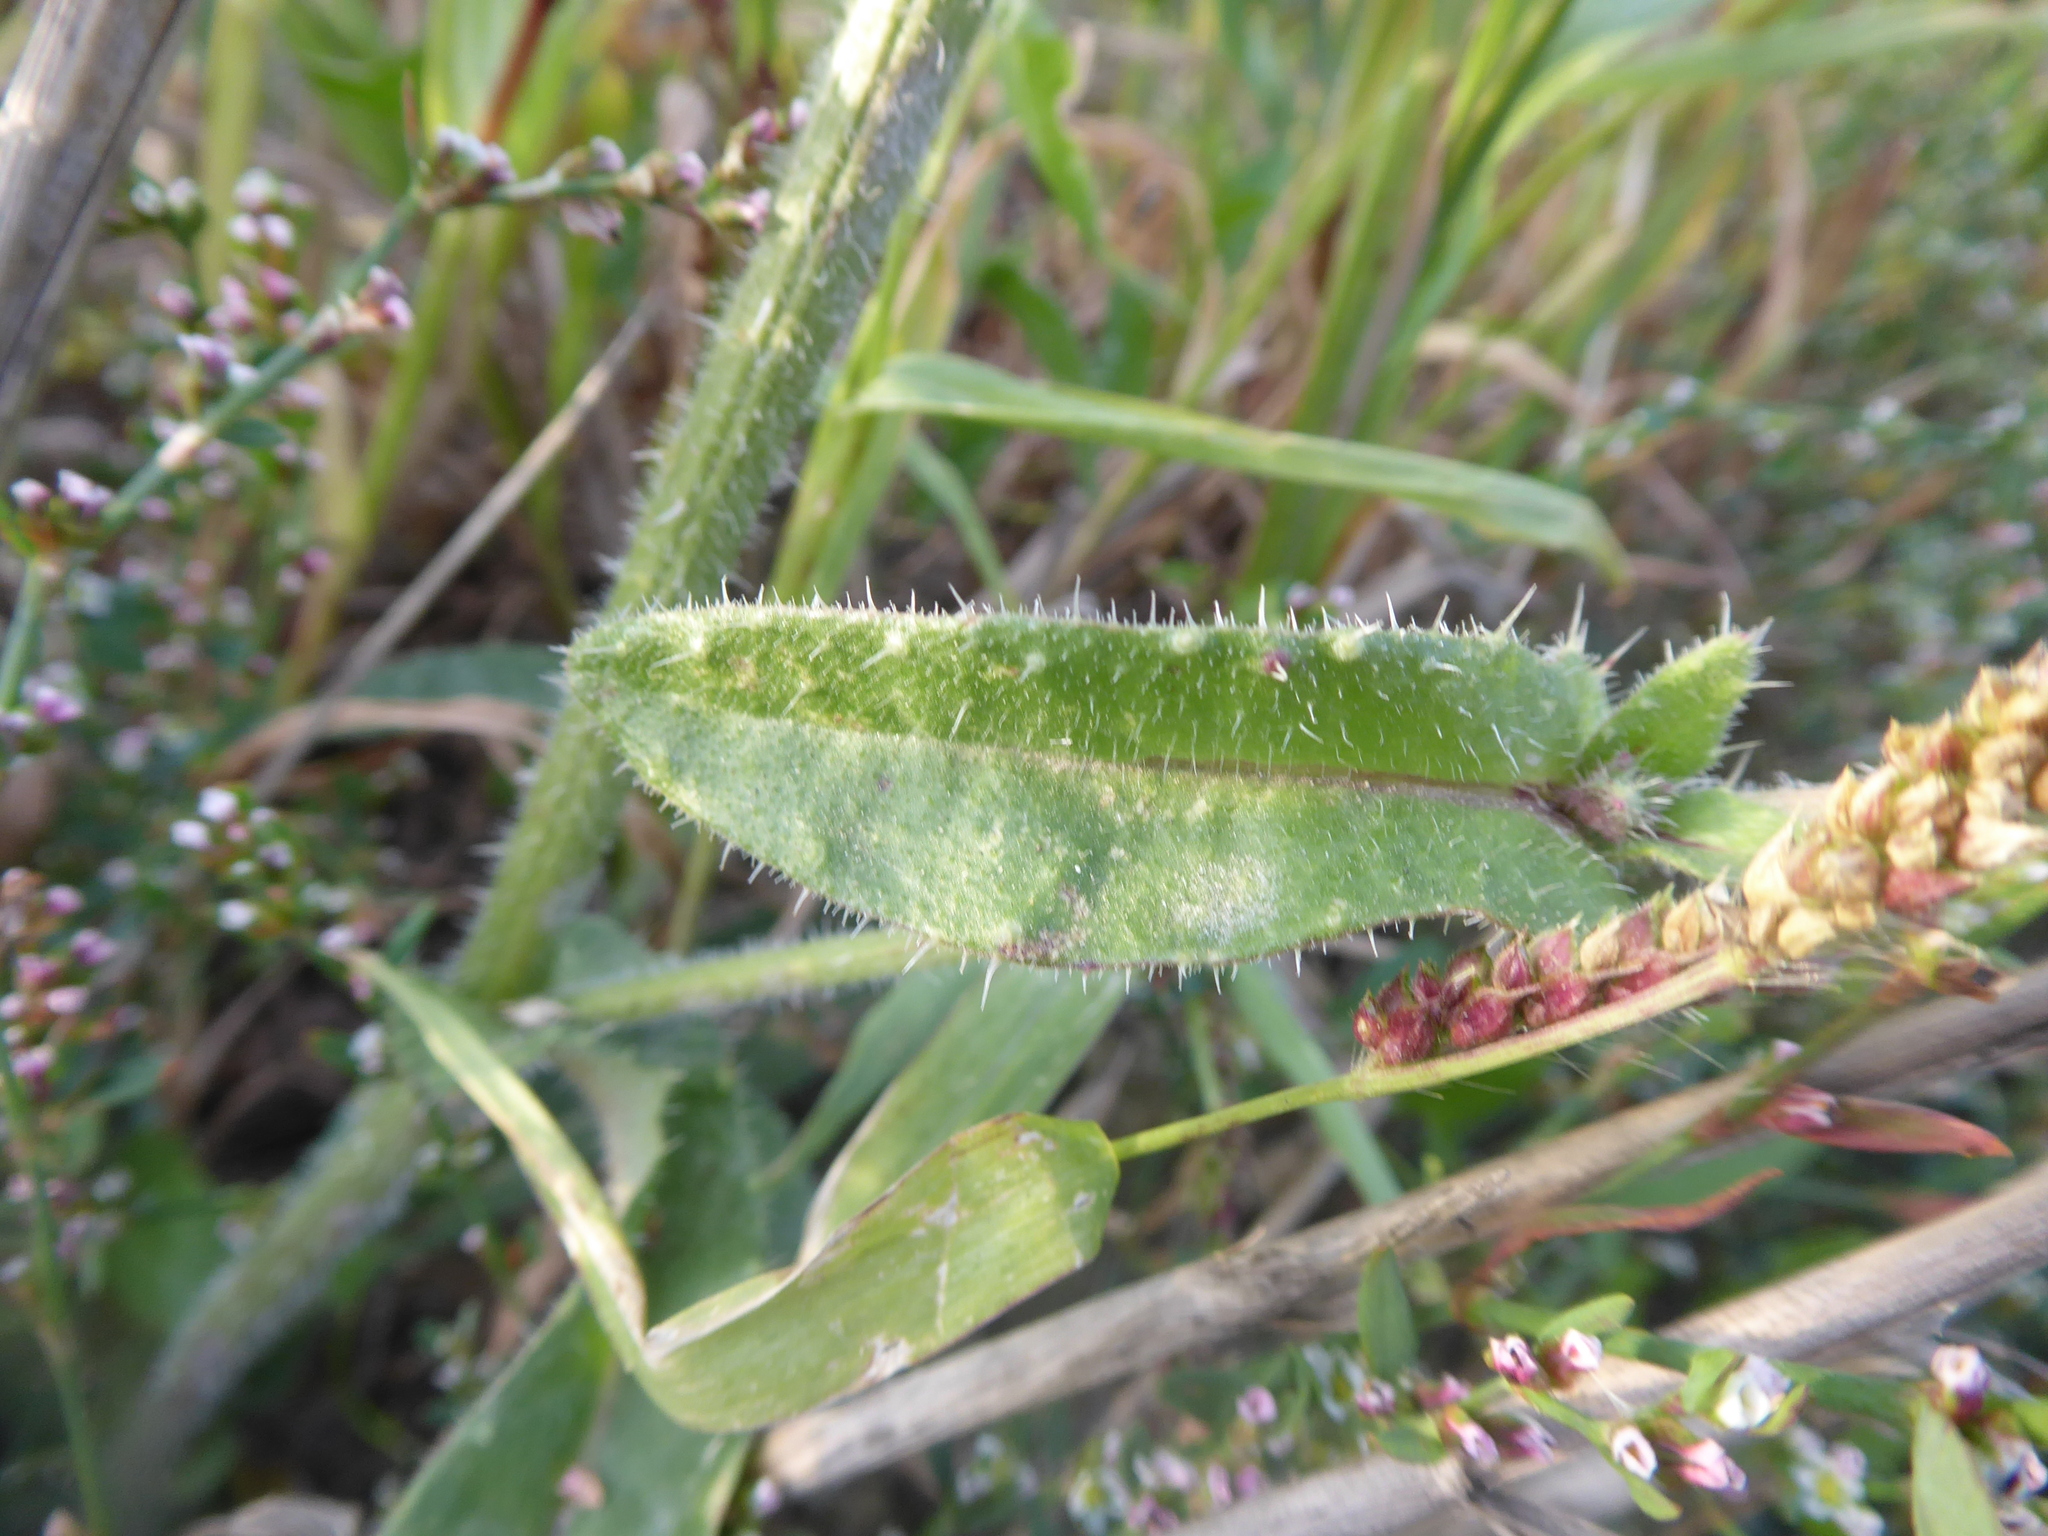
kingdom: Plantae
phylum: Tracheophyta
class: Magnoliopsida
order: Asterales
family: Asteraceae
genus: Helminthotheca
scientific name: Helminthotheca echioides
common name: Ox-tongue
